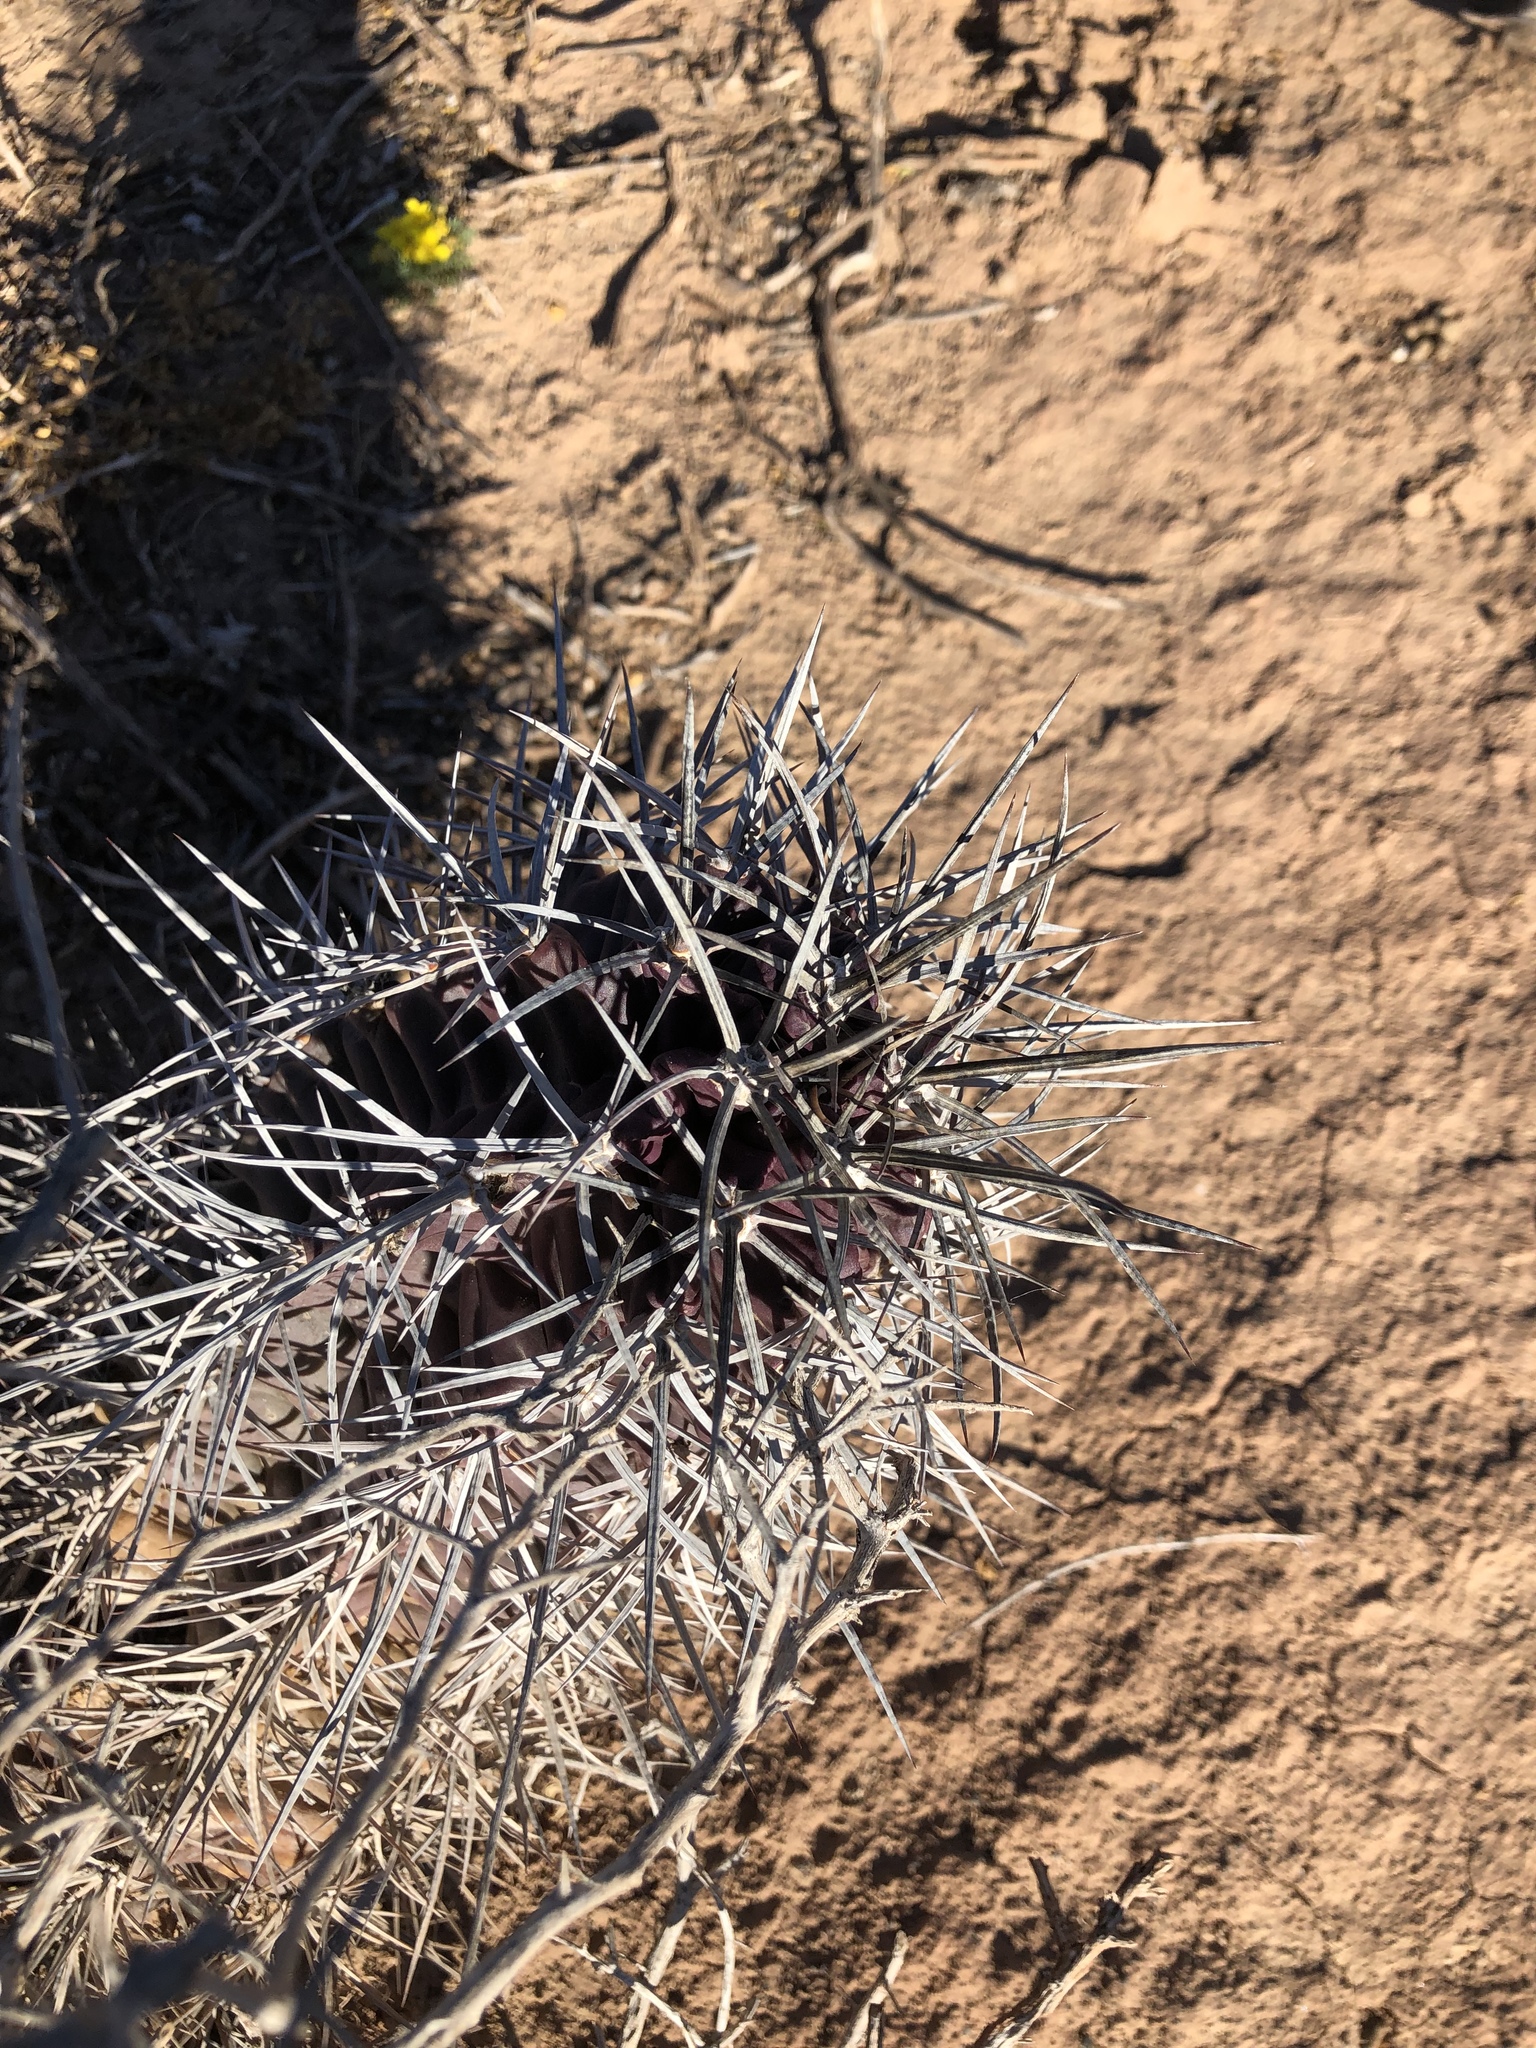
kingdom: Plantae
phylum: Tracheophyta
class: Magnoliopsida
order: Caryophyllales
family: Cactaceae
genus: Echinocereus
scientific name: Echinocereus triglochidiatus
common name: Claretcup hedgehog
